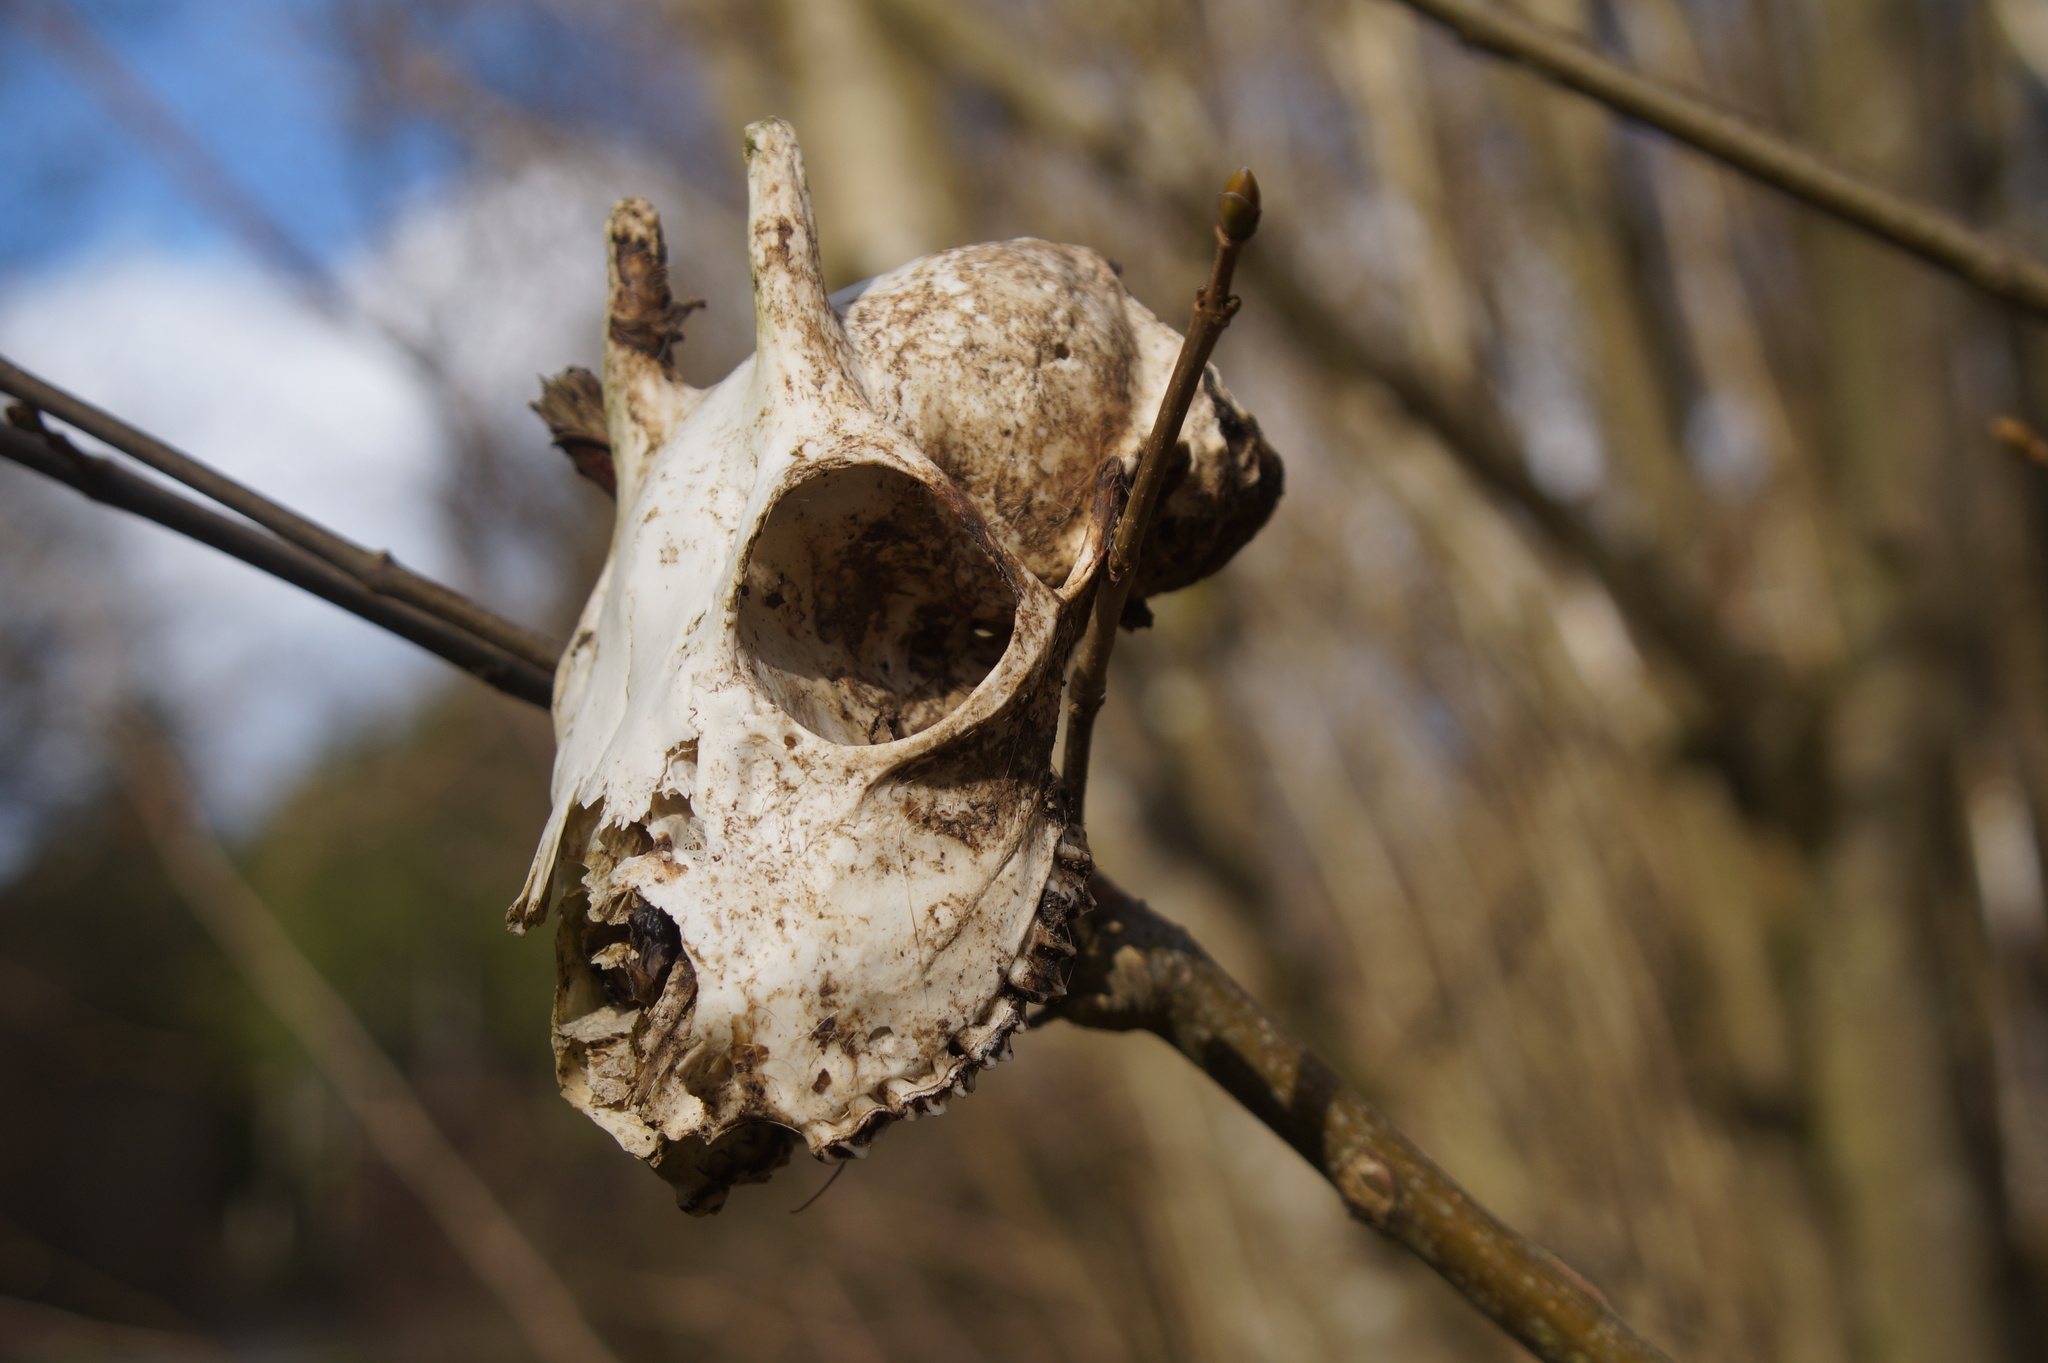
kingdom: Animalia
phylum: Chordata
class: Mammalia
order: Artiodactyla
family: Cervidae
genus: Capreolus
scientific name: Capreolus capreolus
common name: Western roe deer
